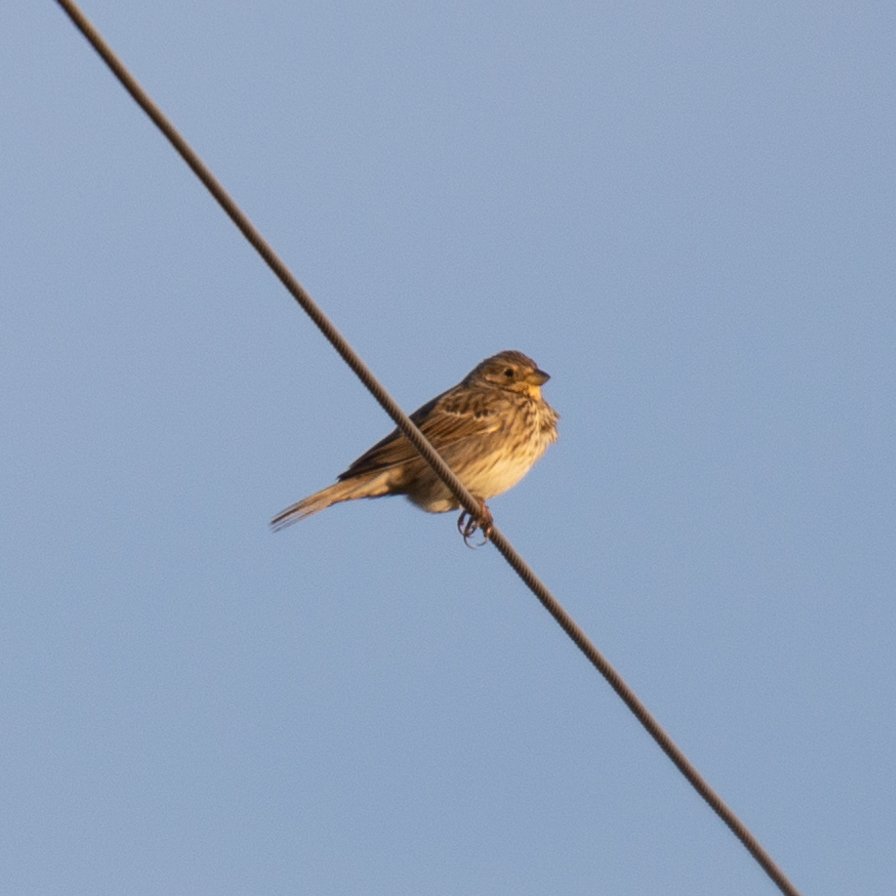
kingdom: Animalia
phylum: Chordata
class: Aves
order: Passeriformes
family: Emberizidae
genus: Emberiza
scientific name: Emberiza calandra
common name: Corn bunting
